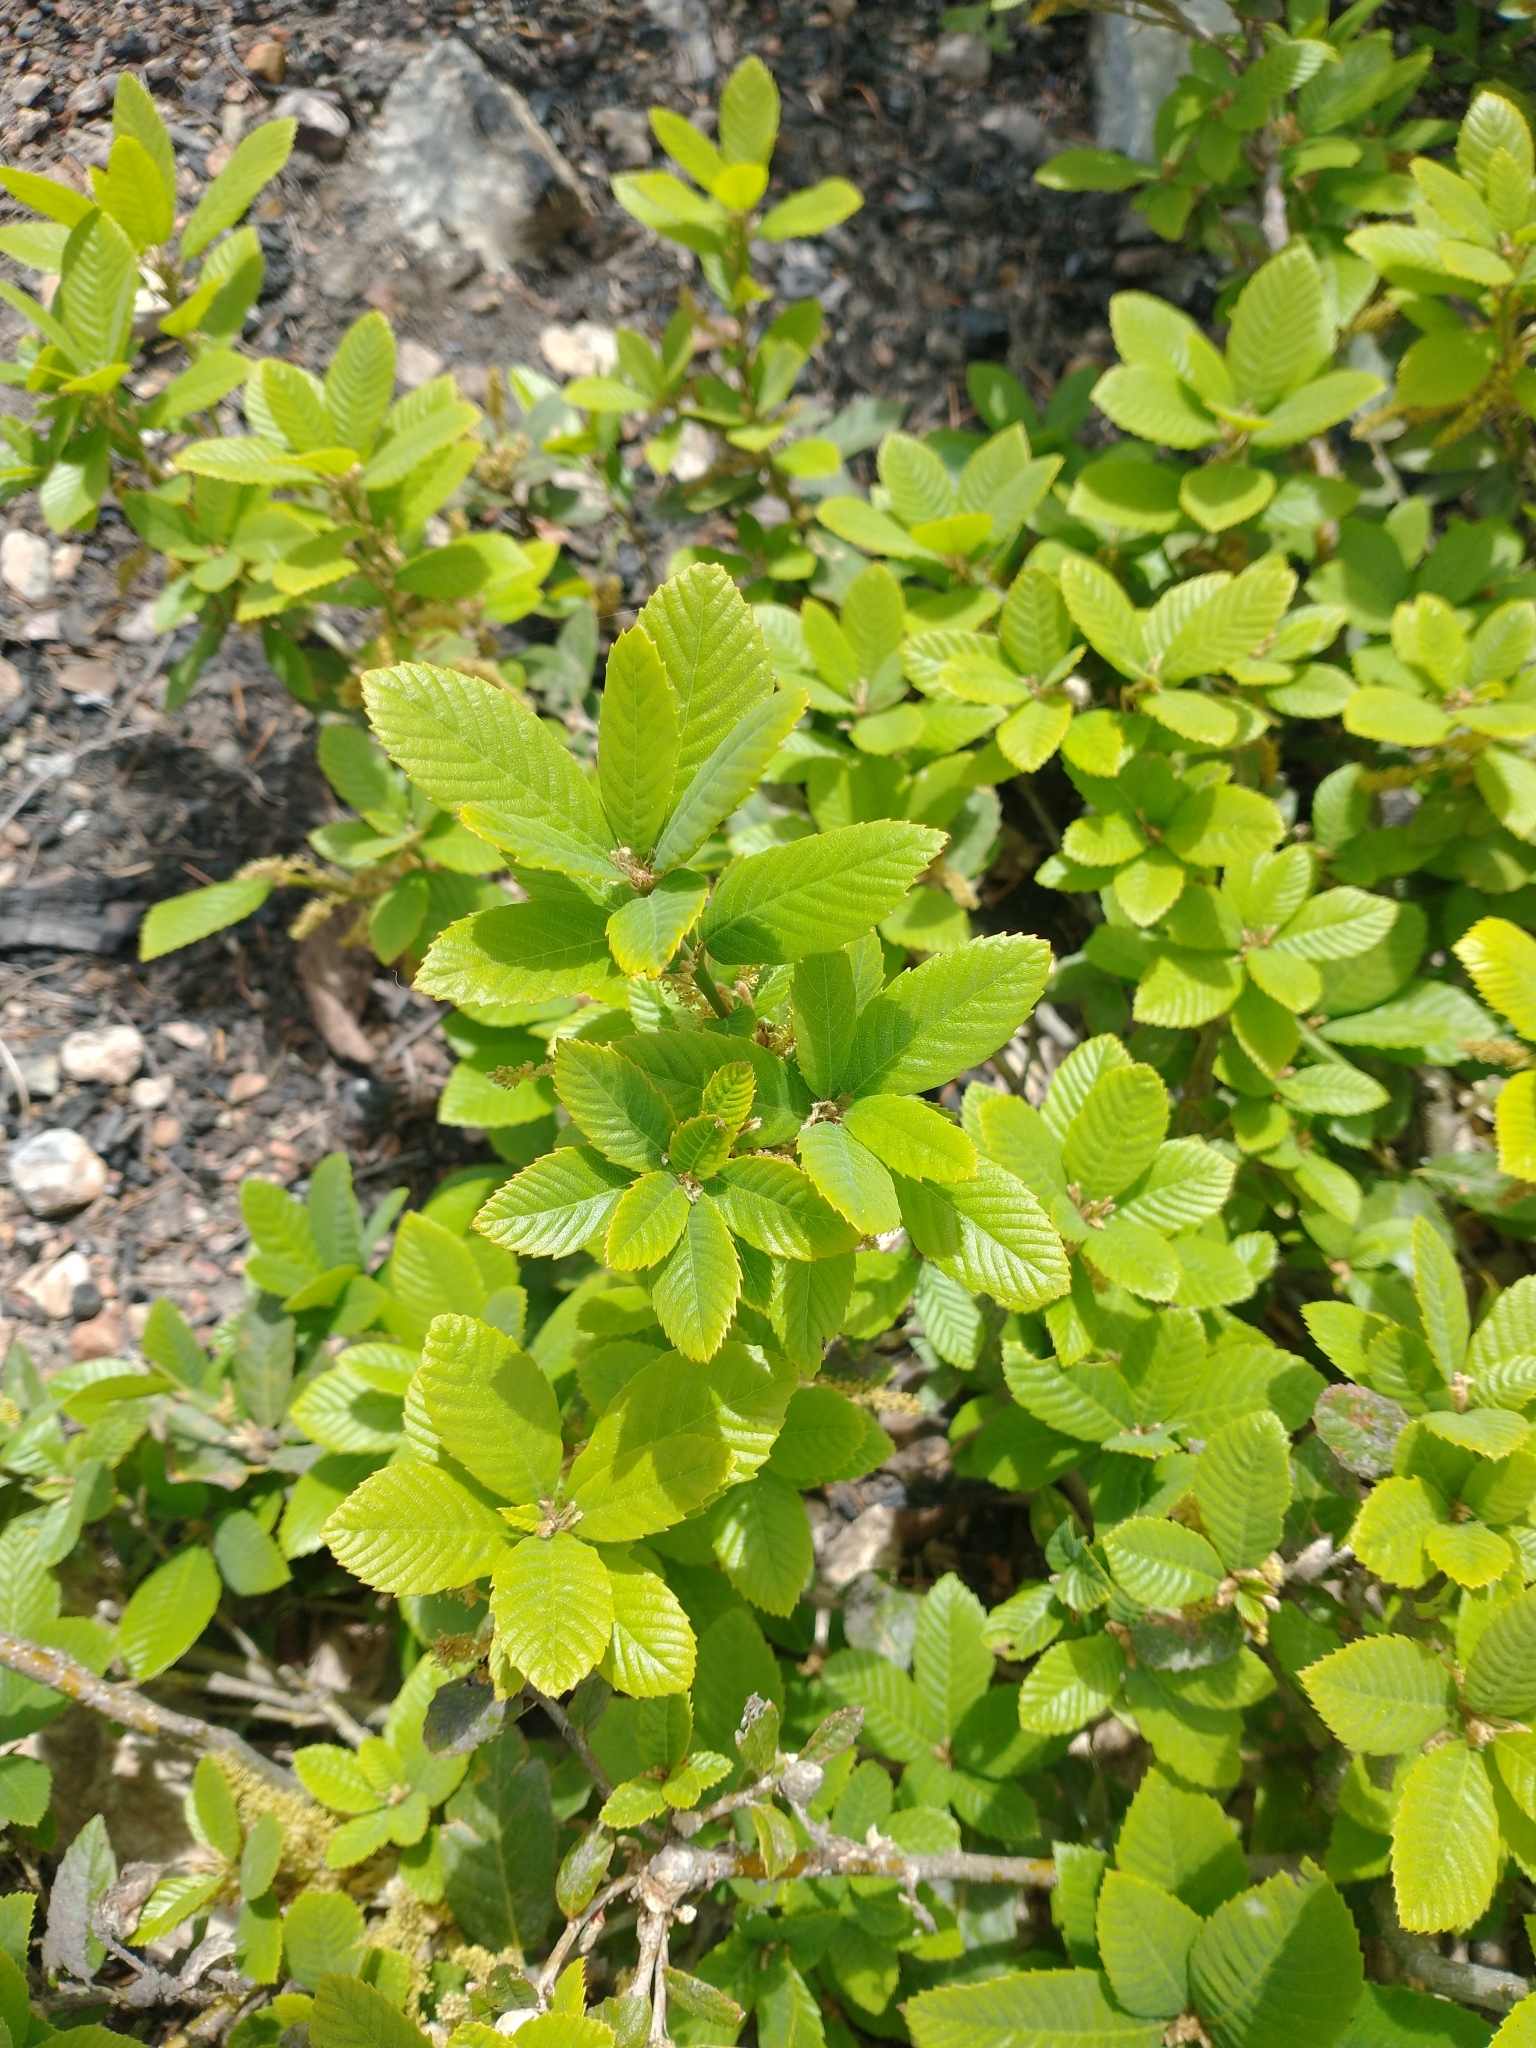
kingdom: Plantae
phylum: Tracheophyta
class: Magnoliopsida
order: Fagales
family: Fagaceae
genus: Quercus
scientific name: Quercus sadleriana
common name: Deer oak
